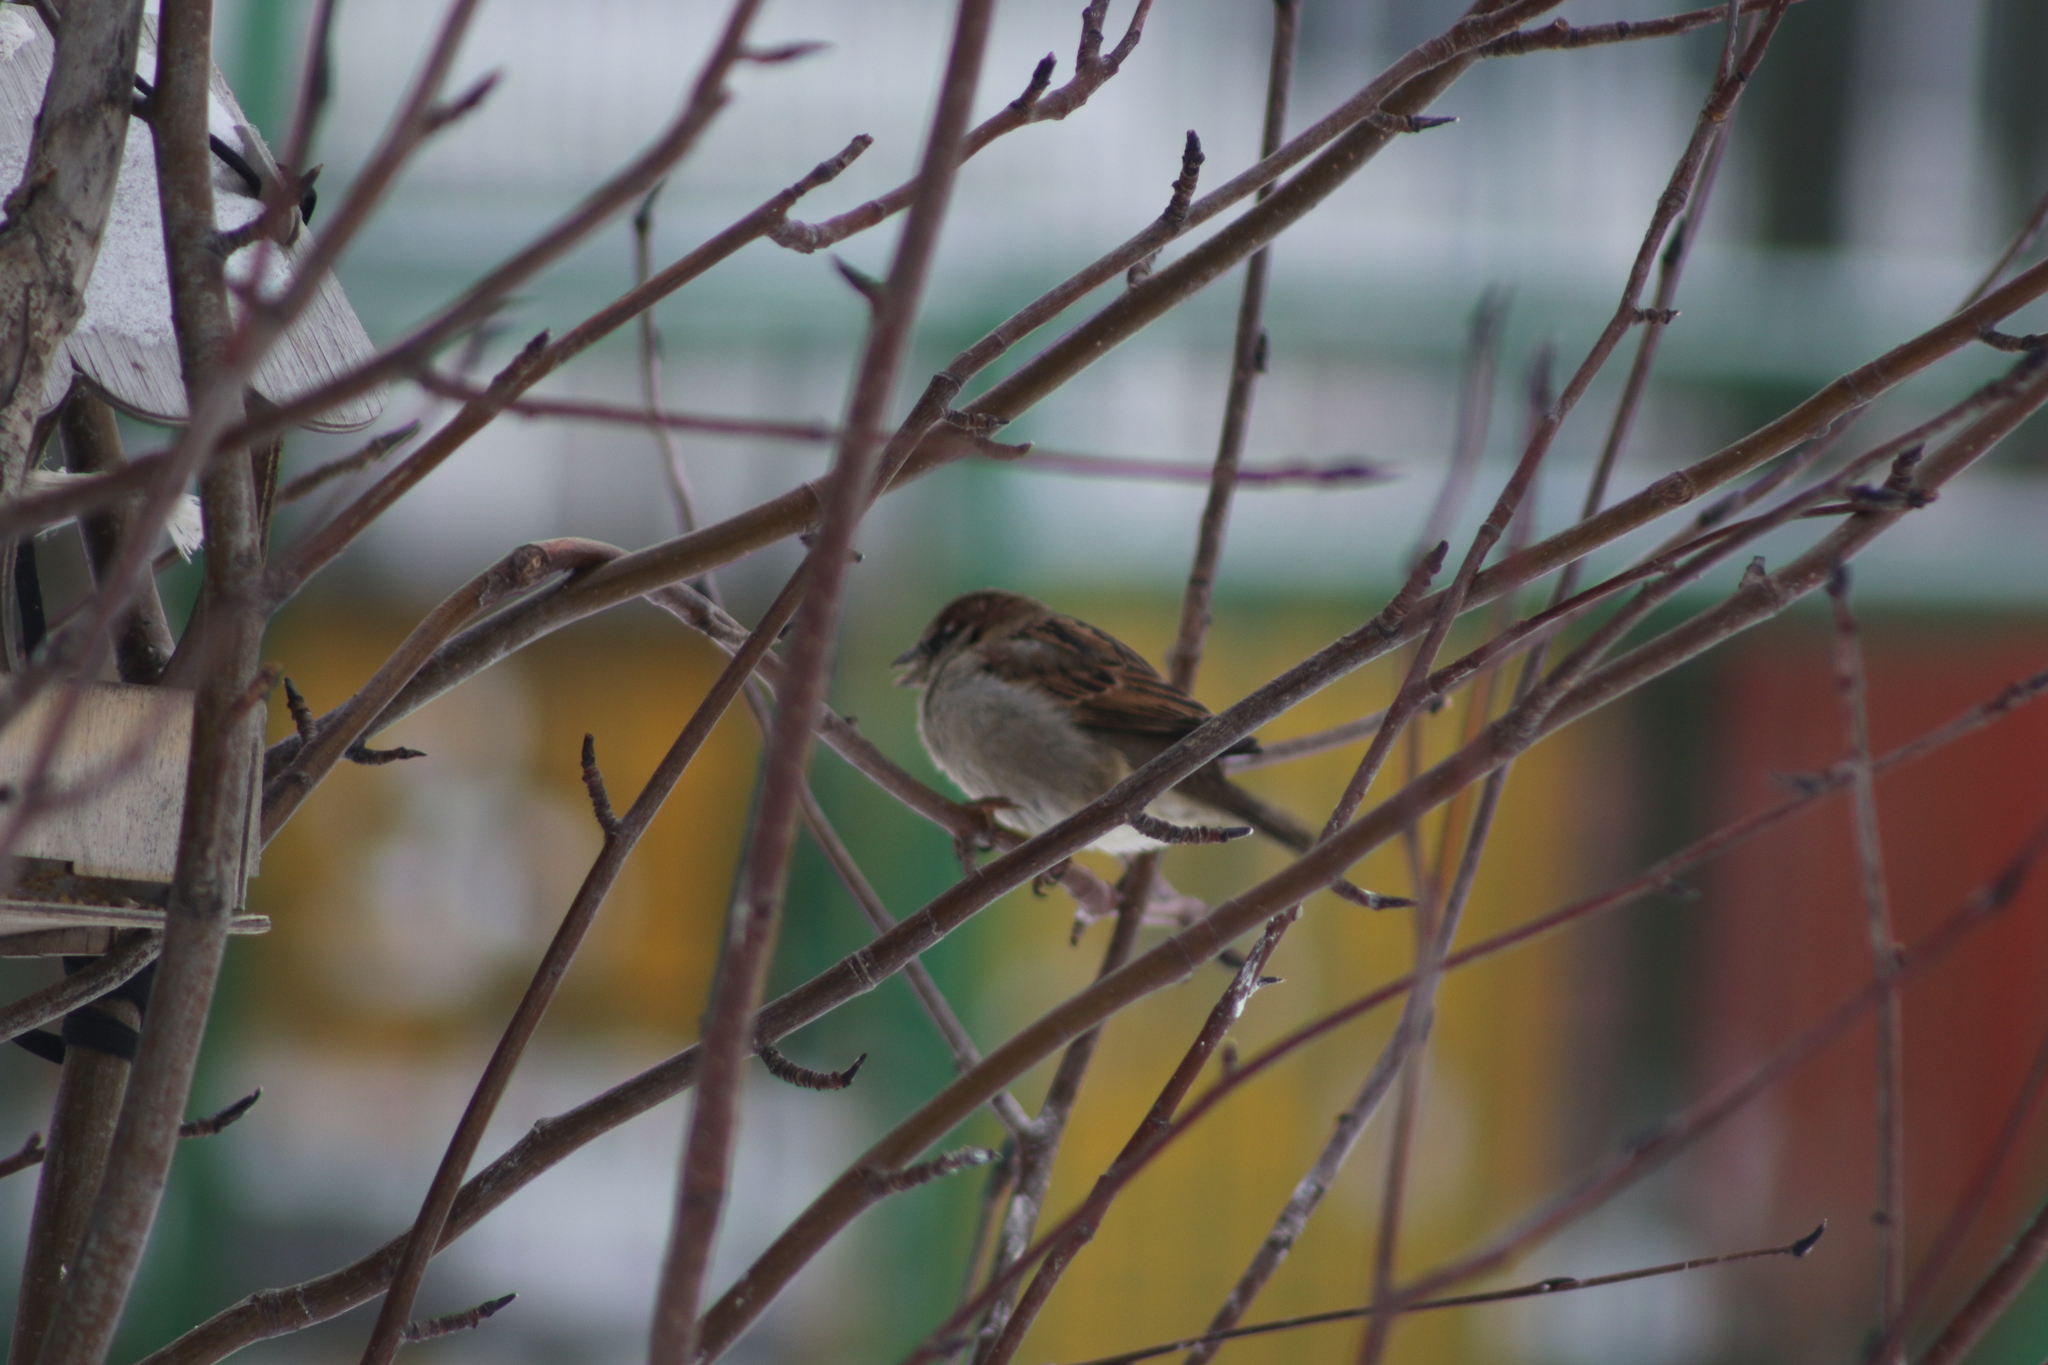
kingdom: Animalia
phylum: Chordata
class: Aves
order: Passeriformes
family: Passeridae
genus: Passer
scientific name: Passer domesticus
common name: House sparrow
